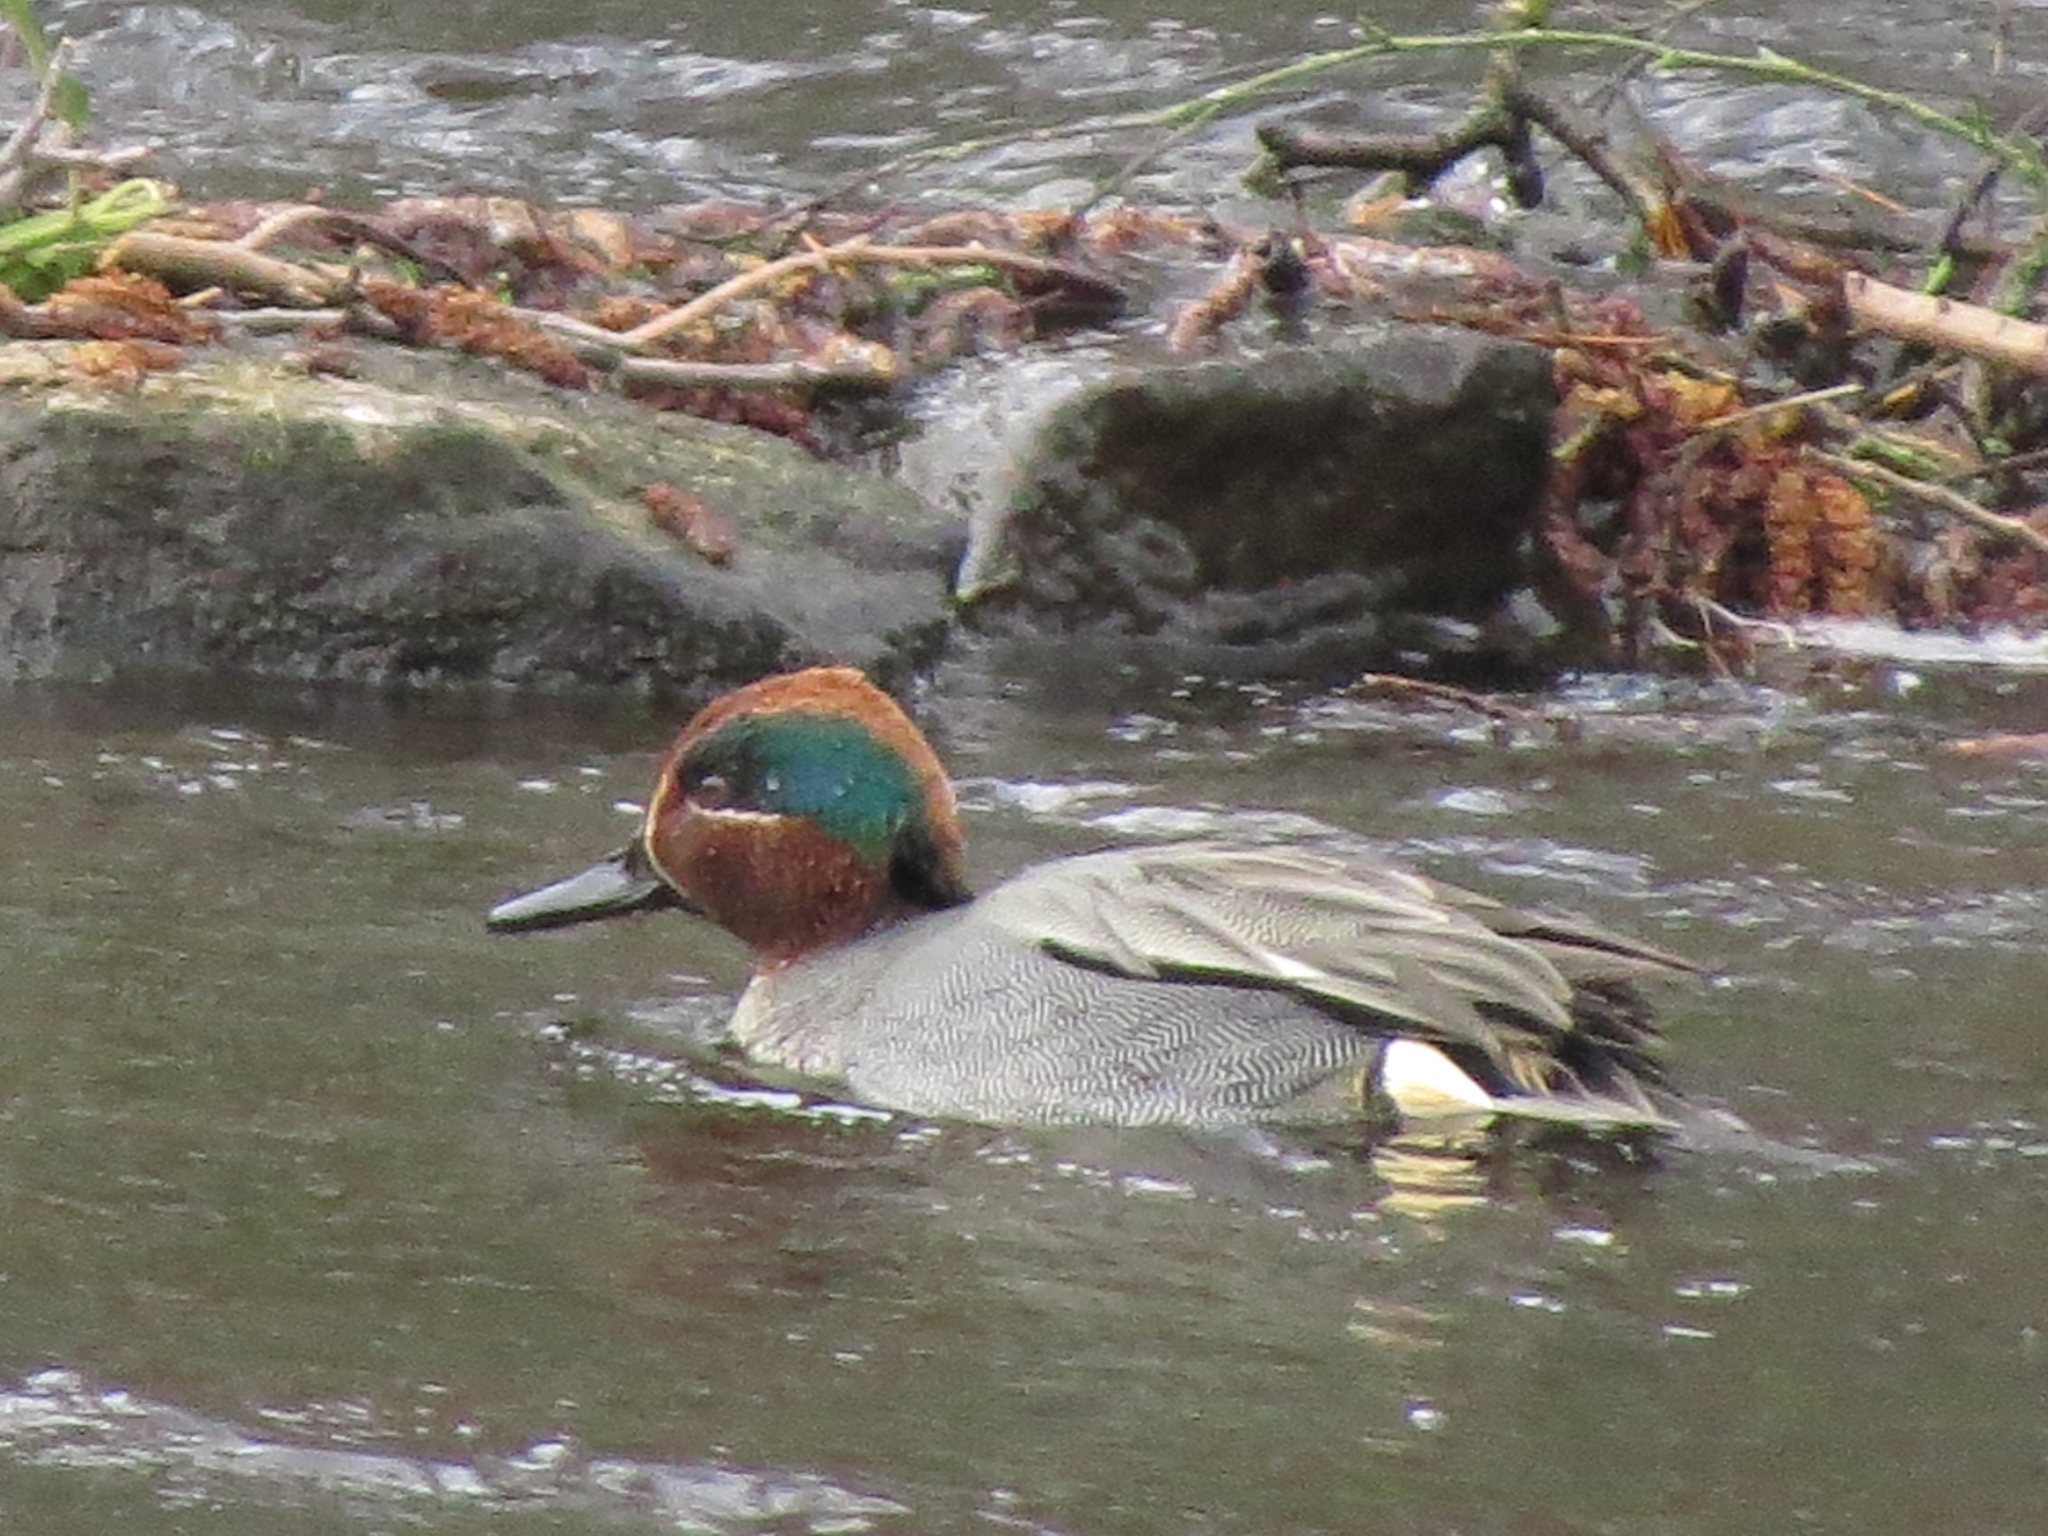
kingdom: Animalia
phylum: Chordata
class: Aves
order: Anseriformes
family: Anatidae
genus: Anas
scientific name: Anas crecca
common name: Eurasian teal
